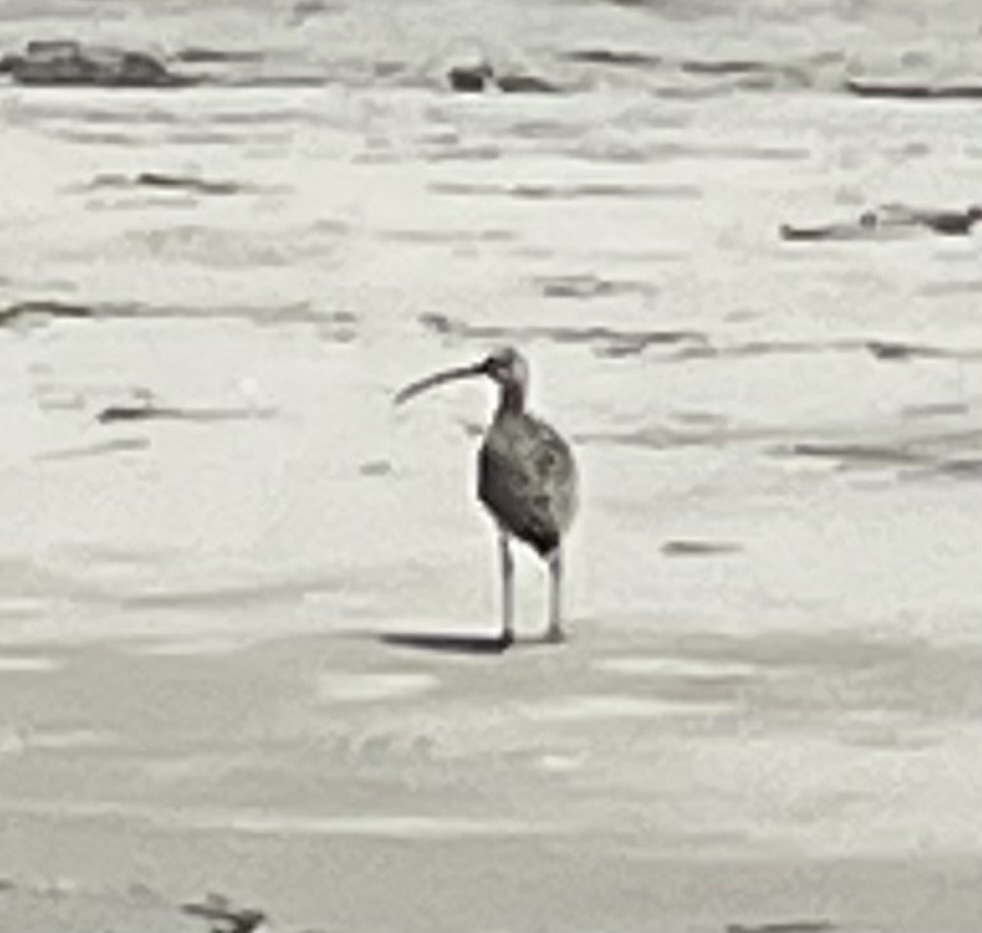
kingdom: Animalia
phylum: Chordata
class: Aves
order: Charadriiformes
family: Scolopacidae
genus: Numenius
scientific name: Numenius phaeopus
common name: Whimbrel
